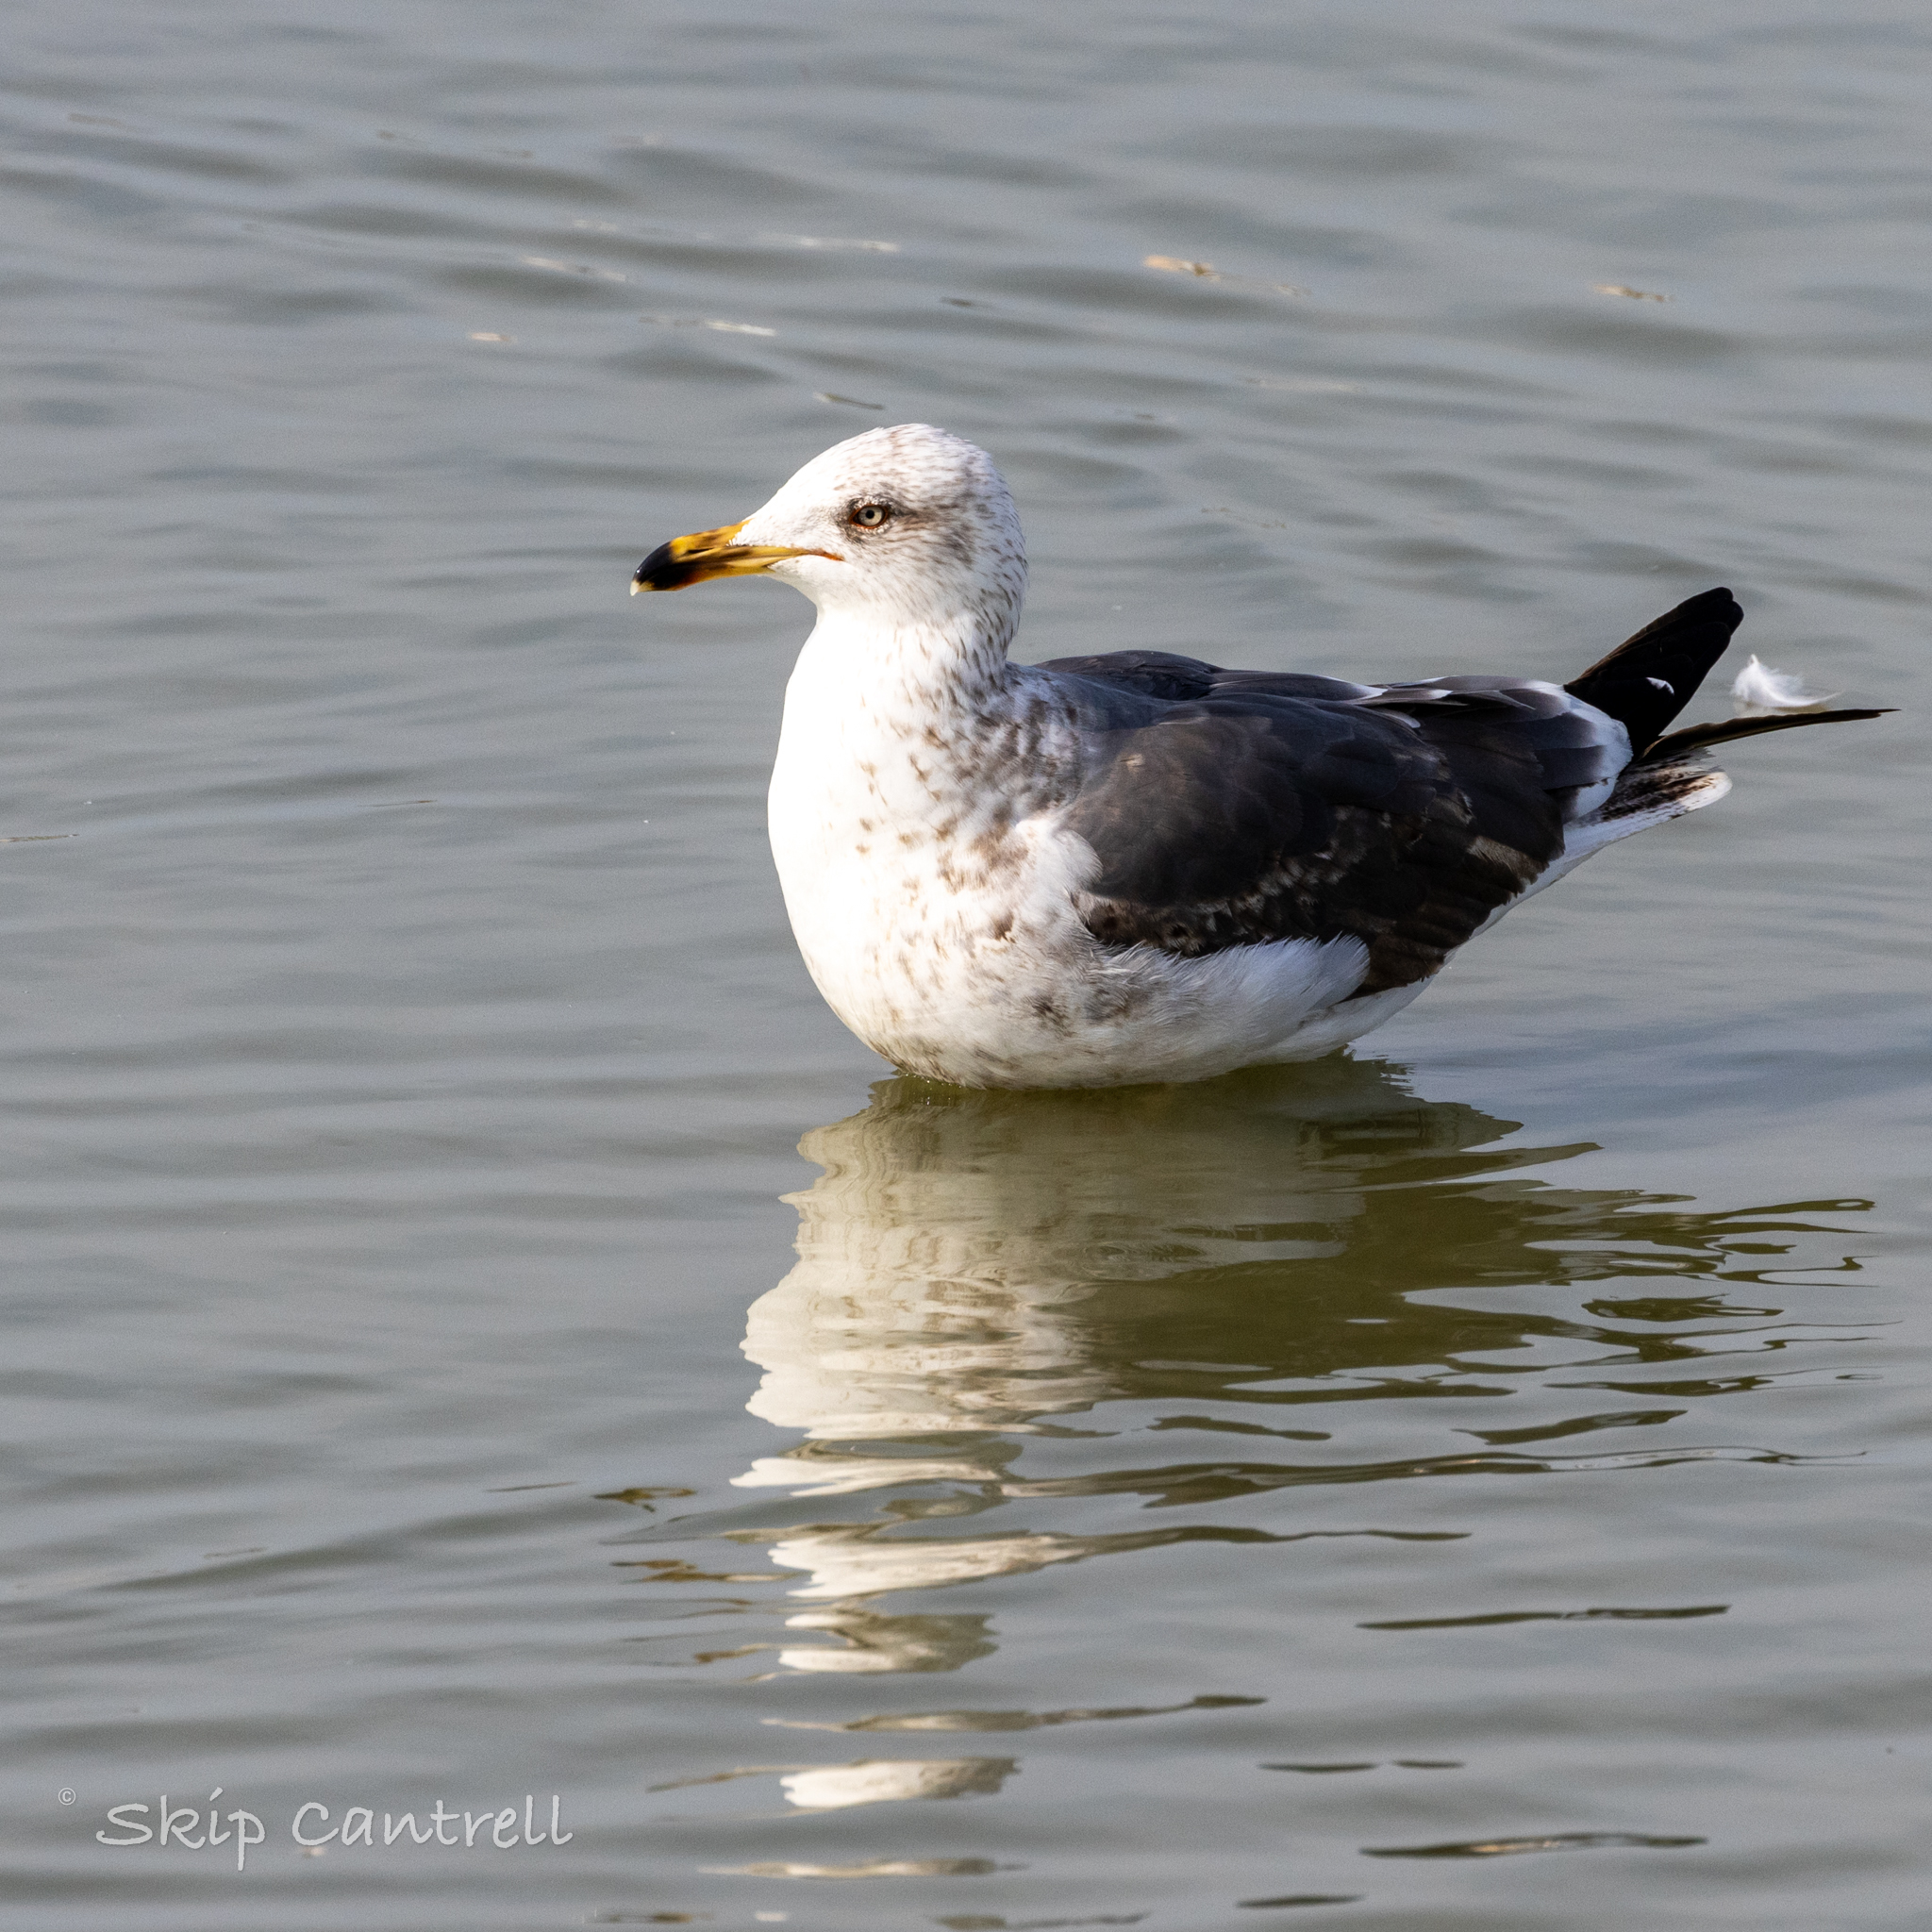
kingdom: Animalia
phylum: Chordata
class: Aves
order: Charadriiformes
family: Laridae
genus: Larus
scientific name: Larus fuscus
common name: Lesser black-backed gull
